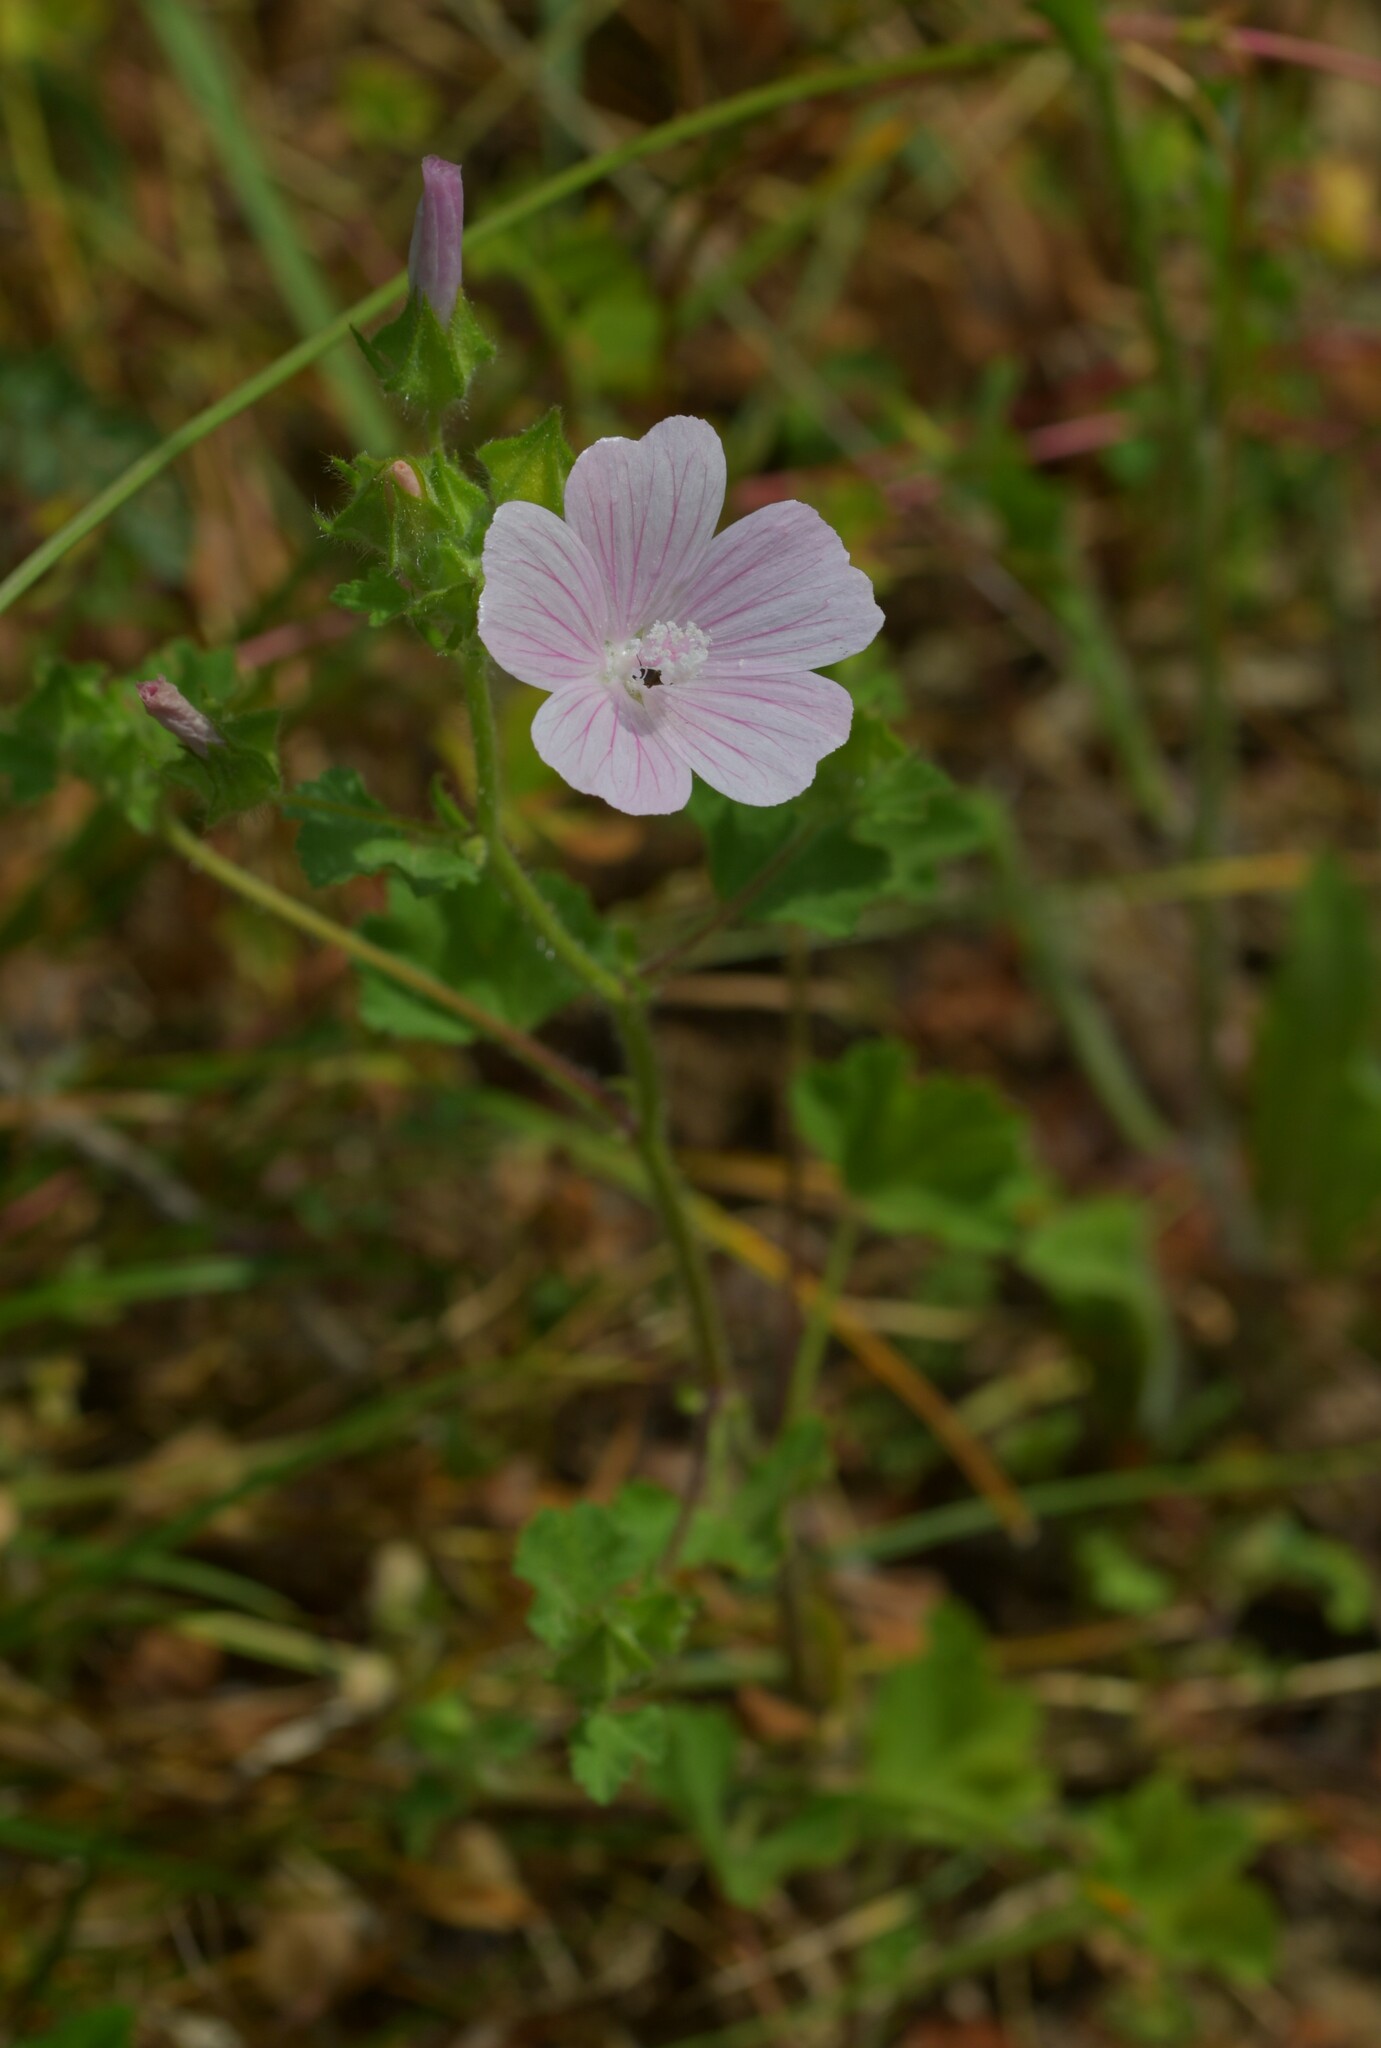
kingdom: Plantae
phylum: Tracheophyta
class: Magnoliopsida
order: Malvales
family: Malvaceae
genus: Malva
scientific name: Malva hispanica
